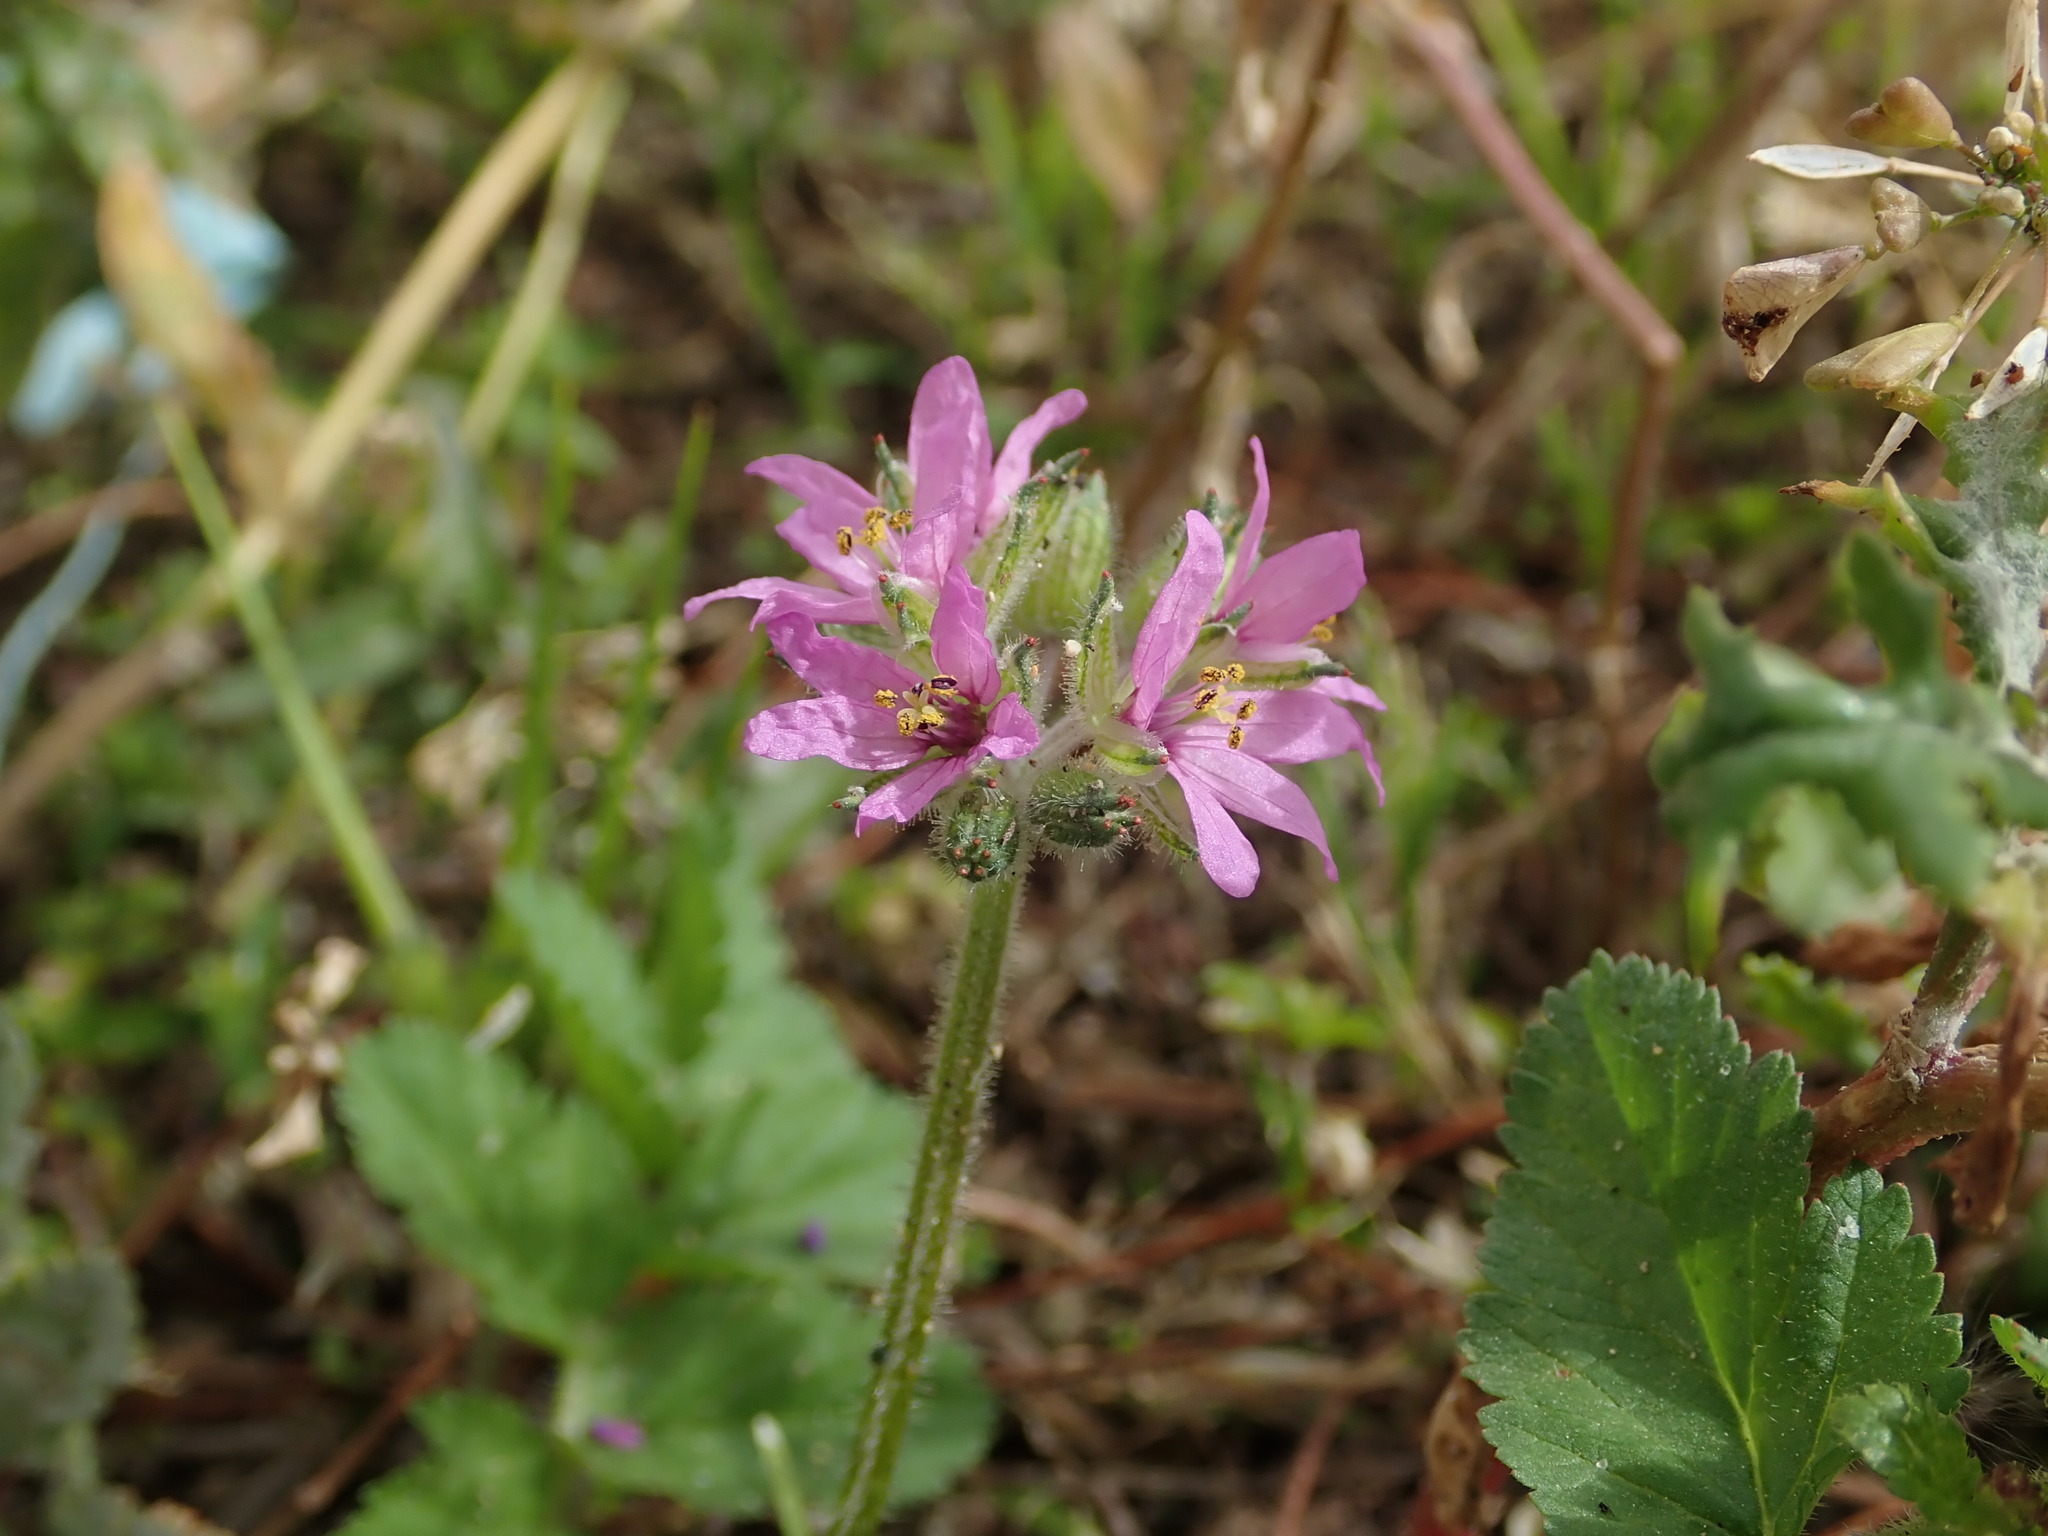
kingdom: Plantae
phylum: Tracheophyta
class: Magnoliopsida
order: Geraniales
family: Geraniaceae
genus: Erodium
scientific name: Erodium moschatum
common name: Musk stork's-bill
